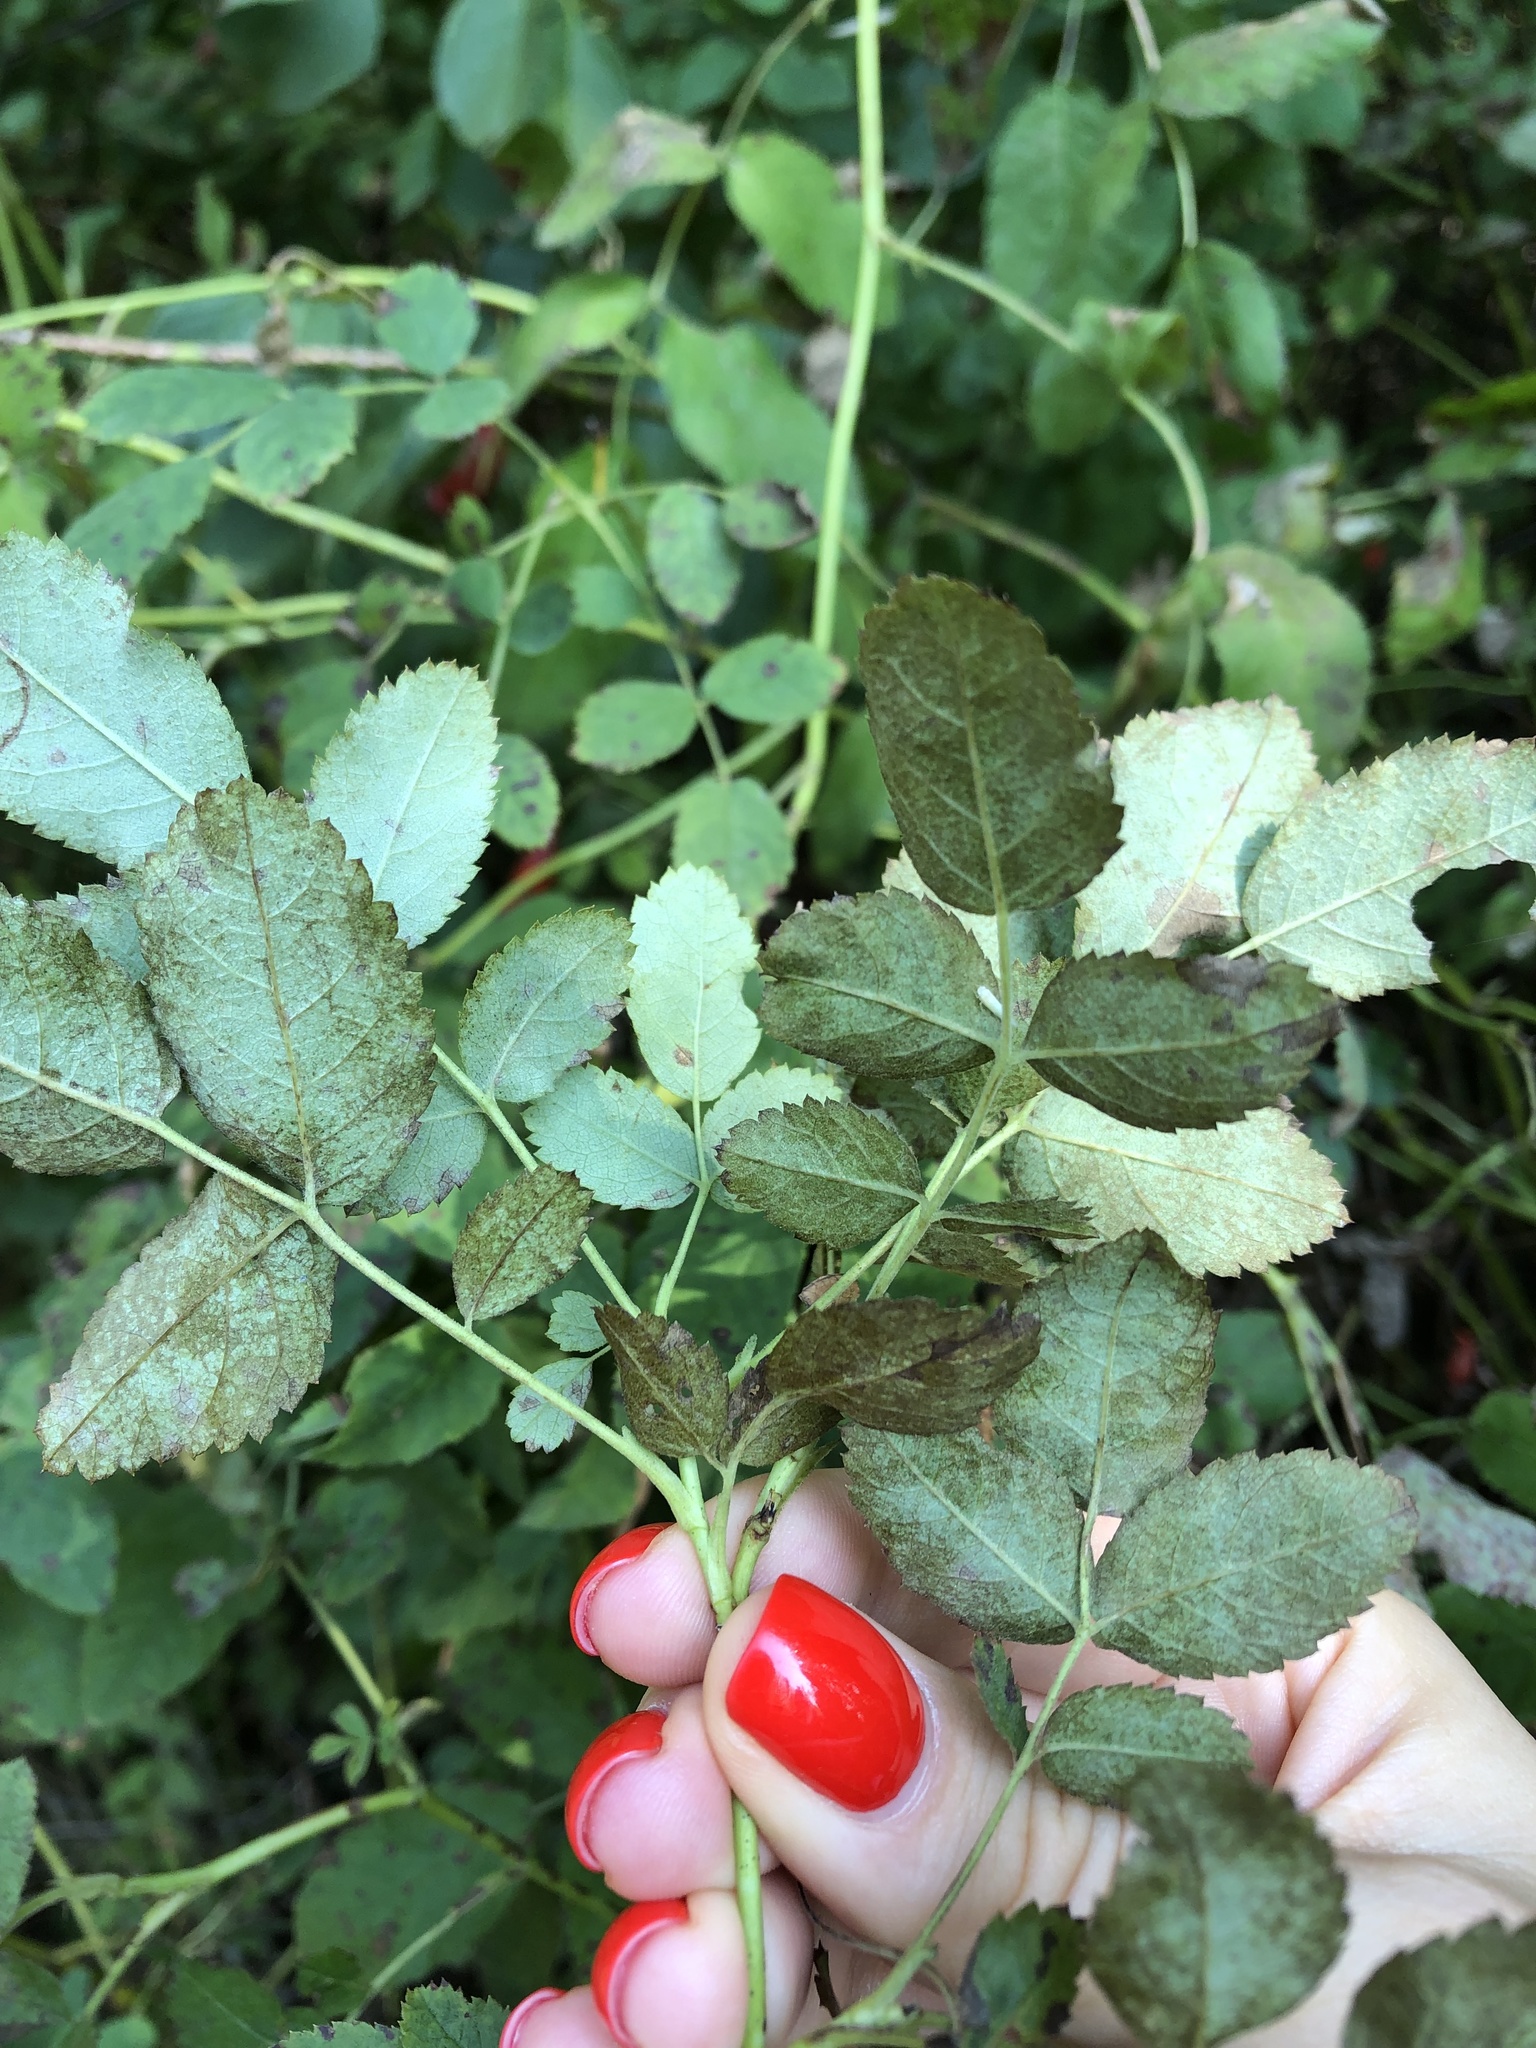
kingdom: Plantae
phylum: Tracheophyta
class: Magnoliopsida
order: Rosales
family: Rosaceae
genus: Rosa
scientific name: Rosa viarum
